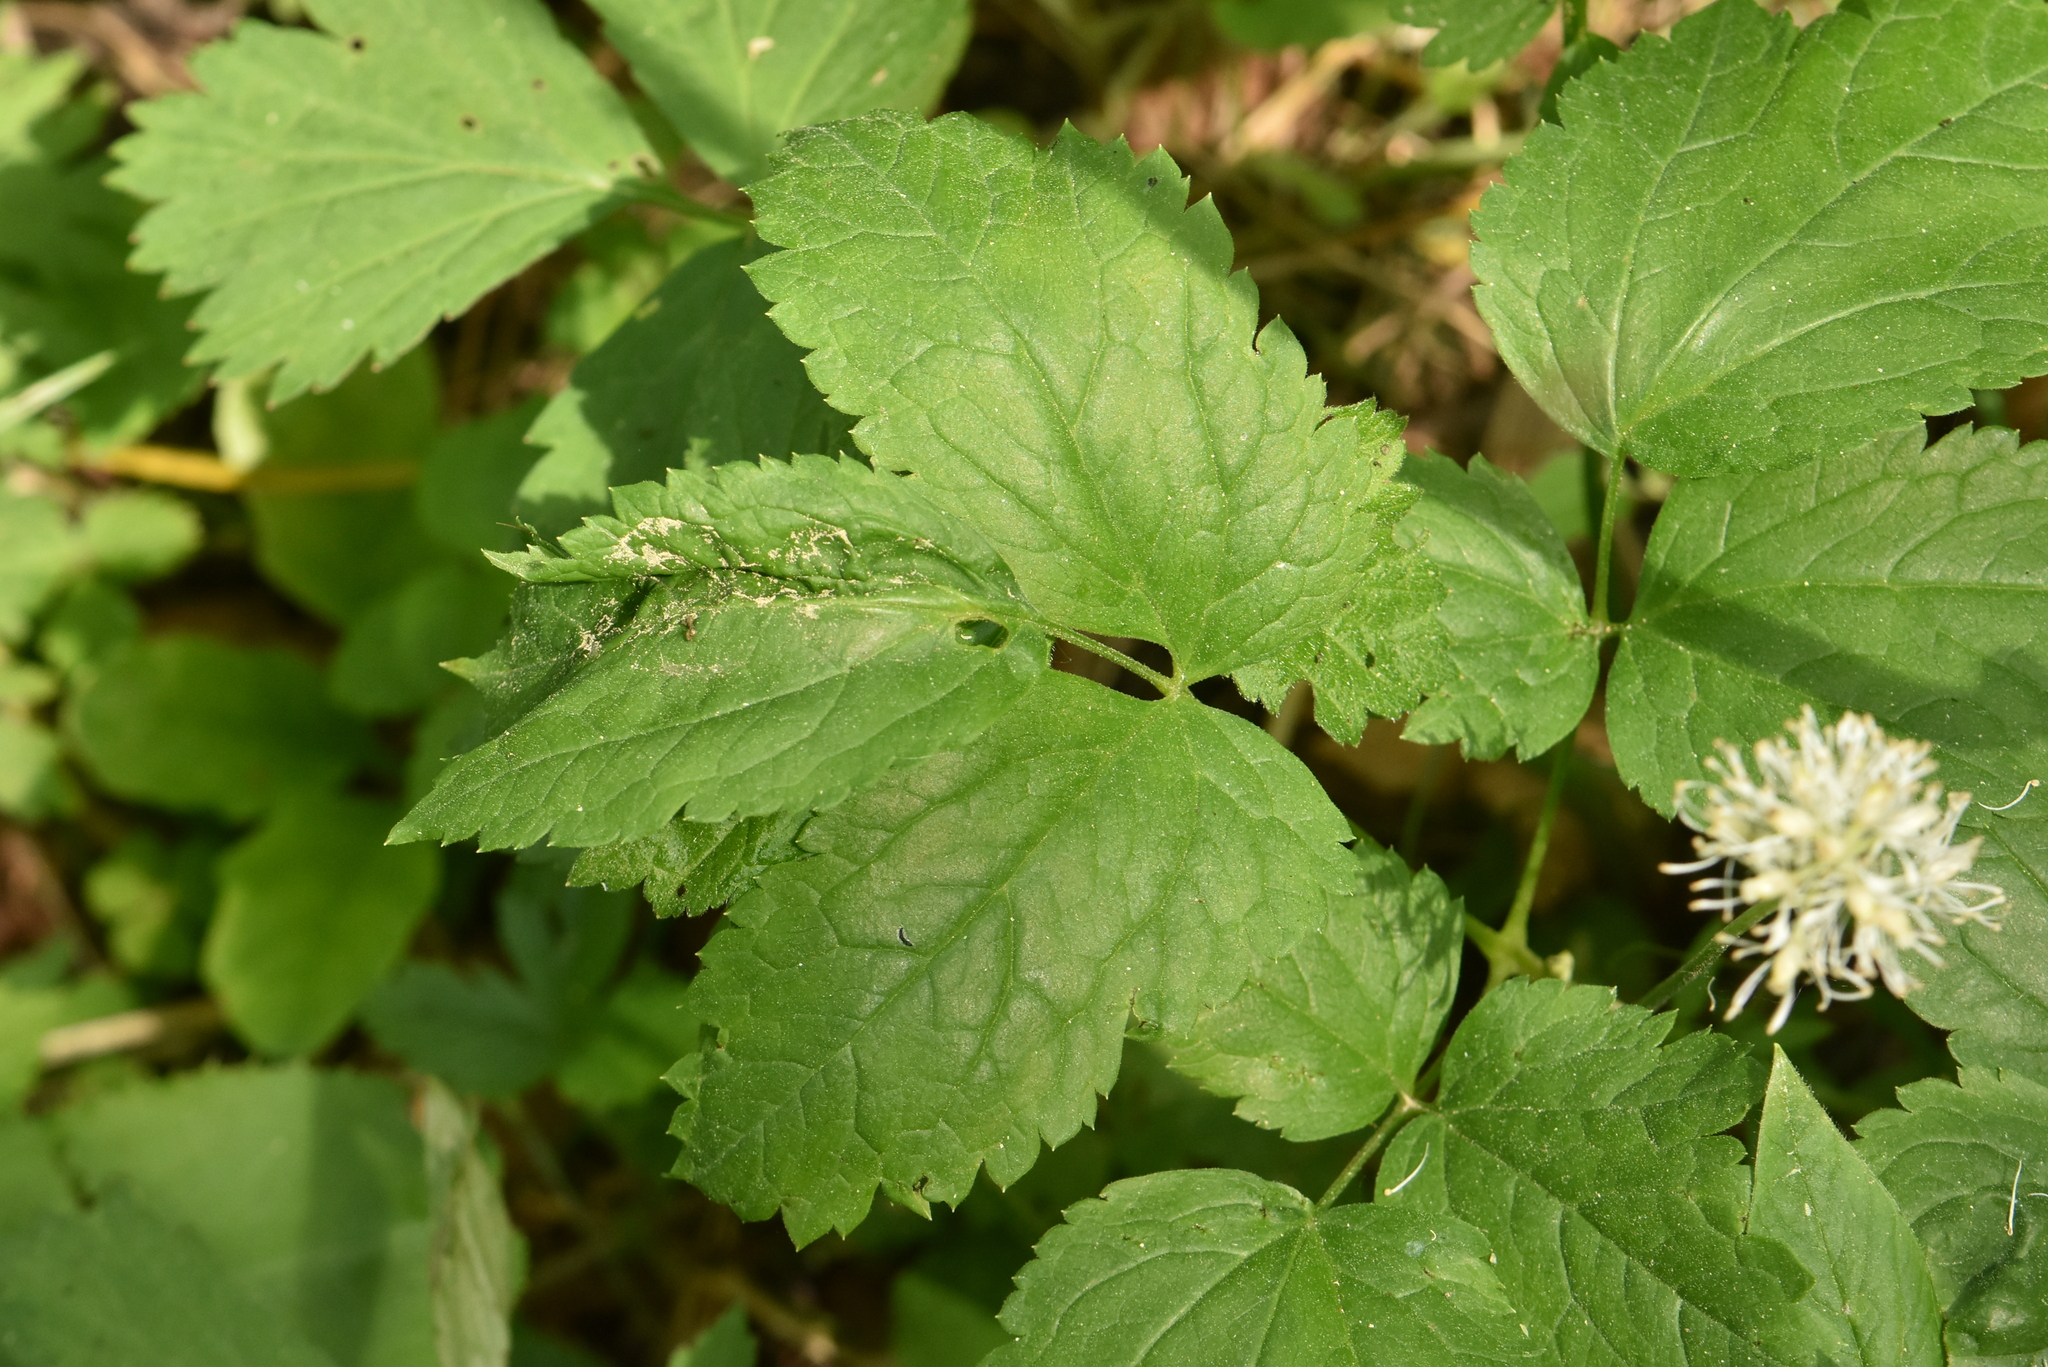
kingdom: Plantae
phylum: Tracheophyta
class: Magnoliopsida
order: Ranunculales
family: Ranunculaceae
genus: Actaea
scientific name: Actaea spicata
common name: Baneberry
